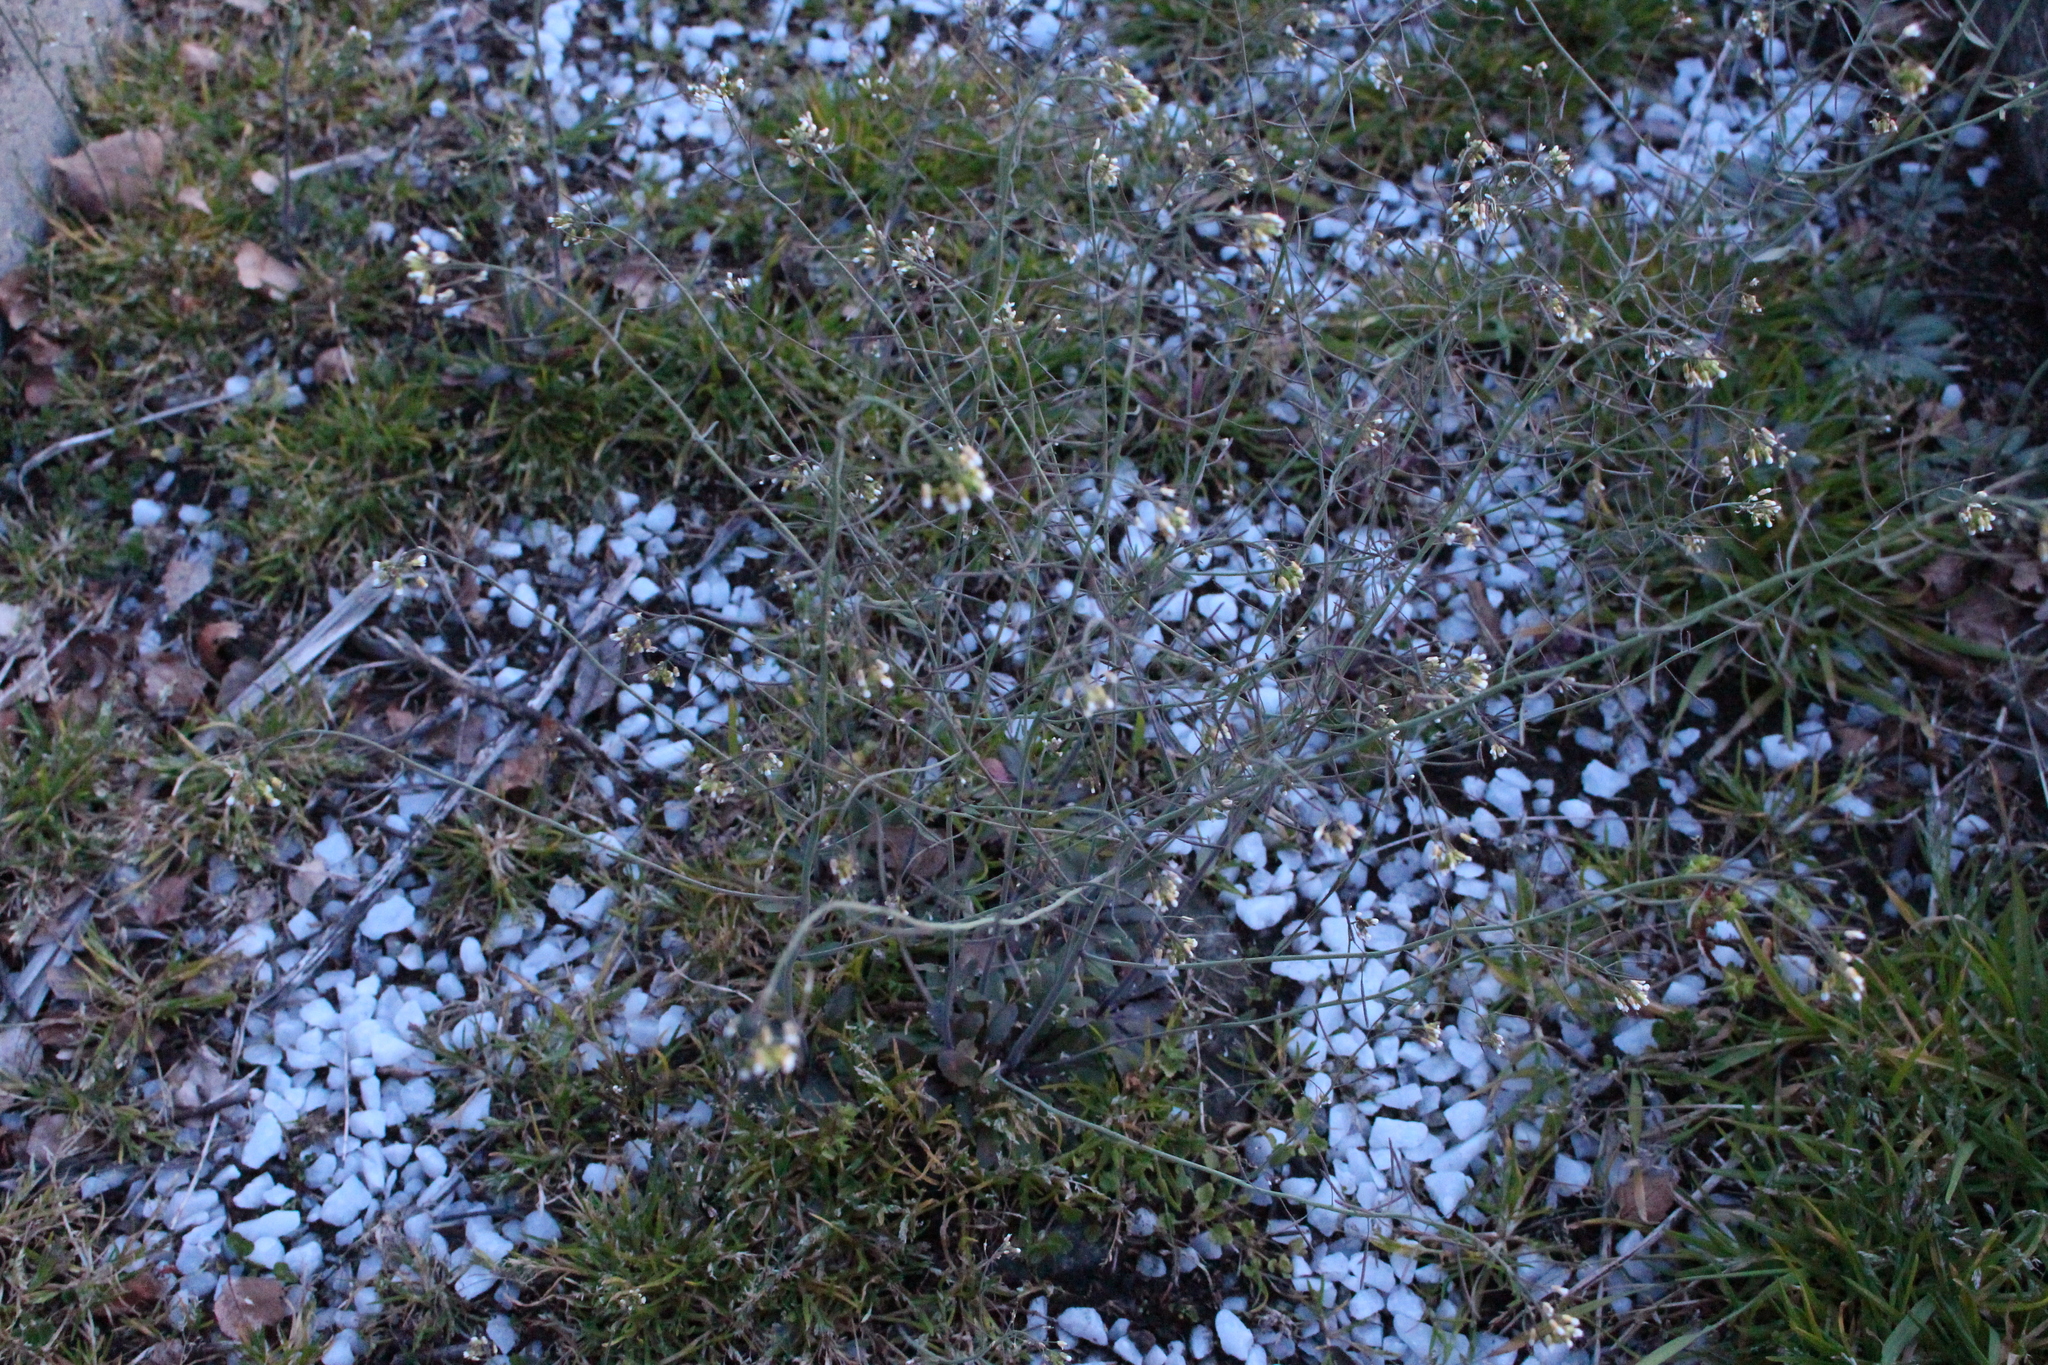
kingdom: Plantae
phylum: Tracheophyta
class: Magnoliopsida
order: Brassicales
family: Brassicaceae
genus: Arabidopsis
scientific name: Arabidopsis thaliana
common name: Thale cress
